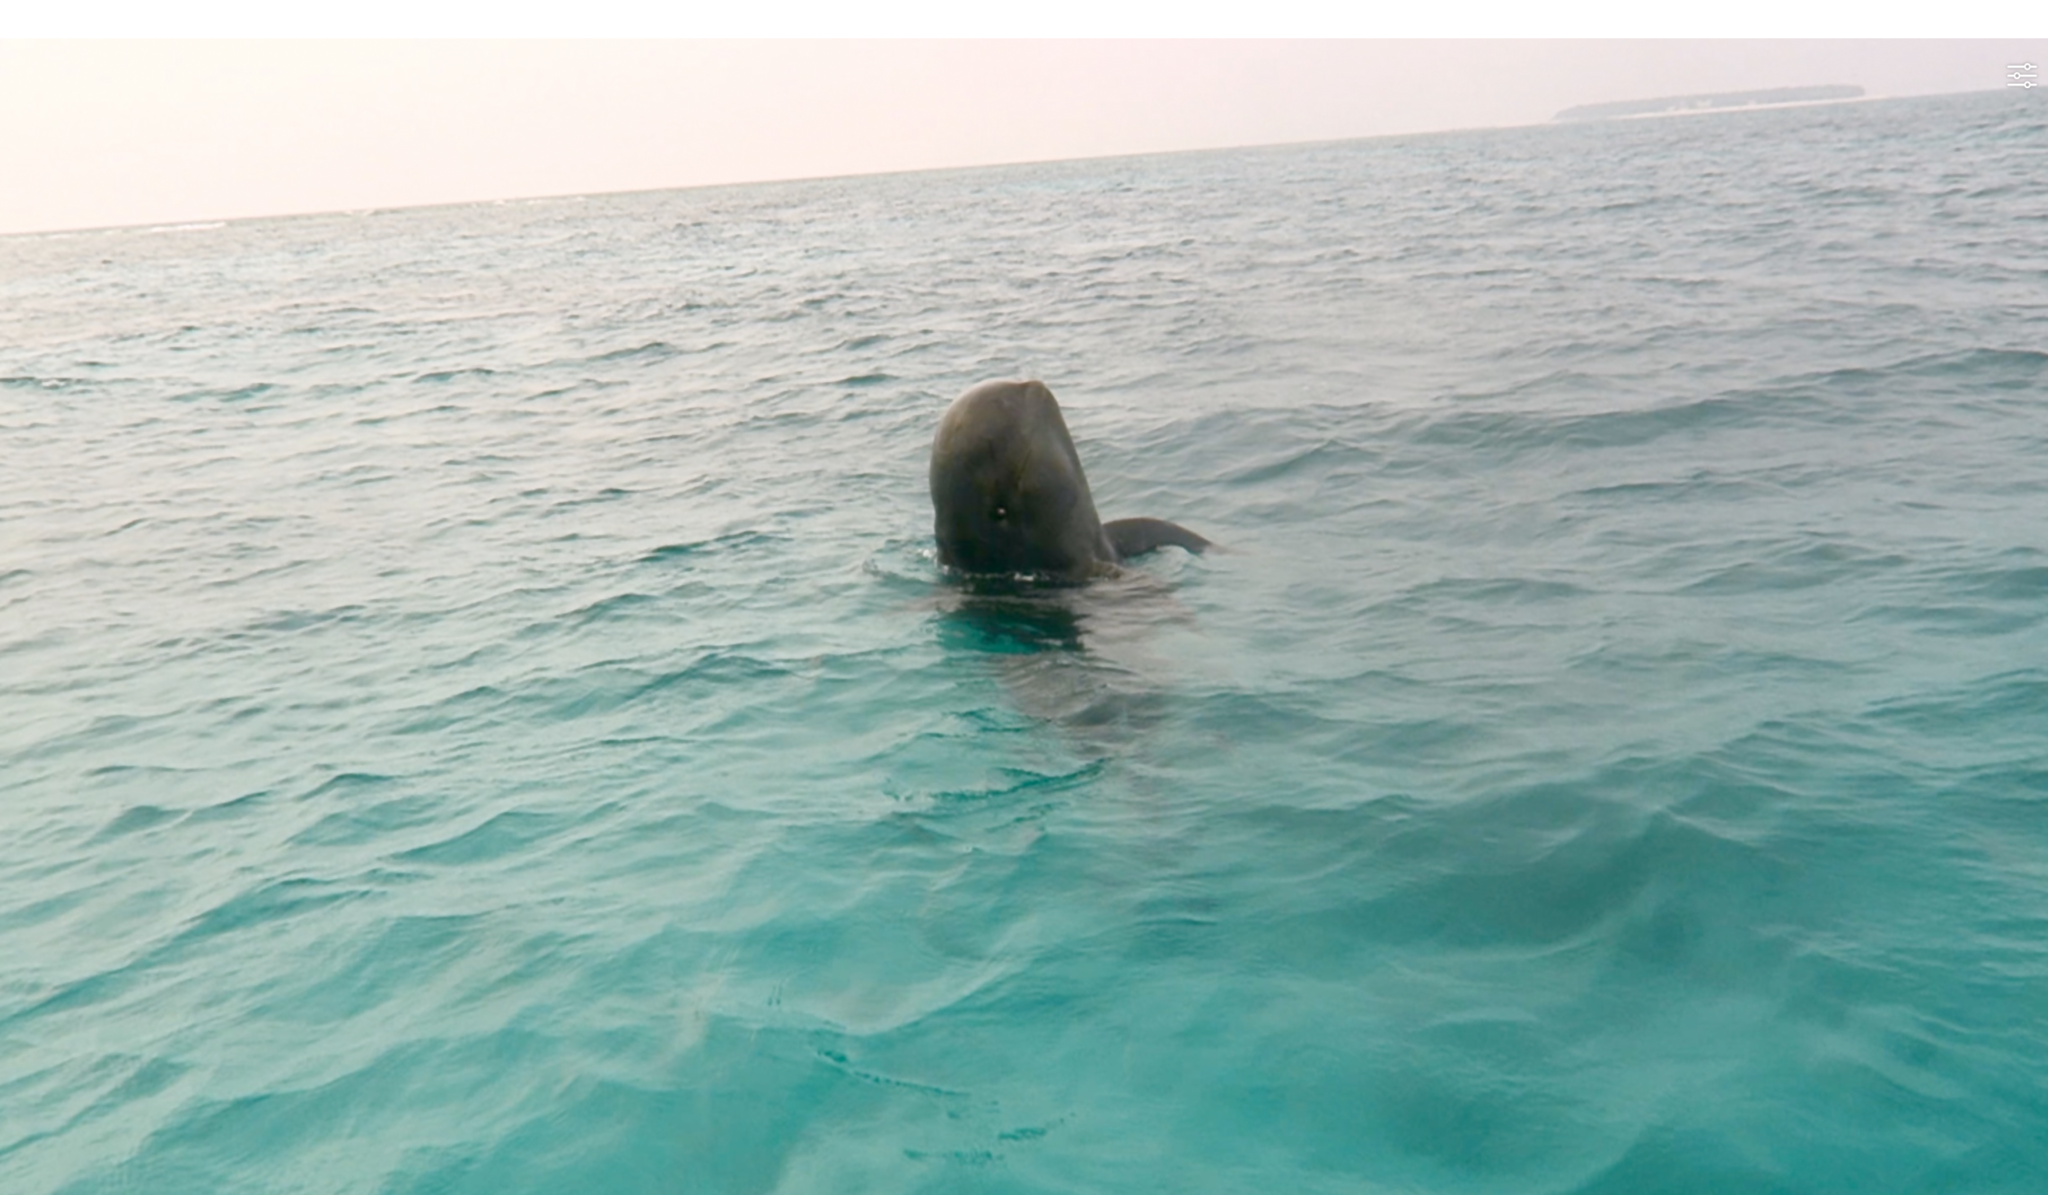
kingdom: Animalia
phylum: Chordata
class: Mammalia
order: Cetacea
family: Delphinidae
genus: Globicephala
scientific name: Globicephala macrorhynchus
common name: Short-finned pilot whale
